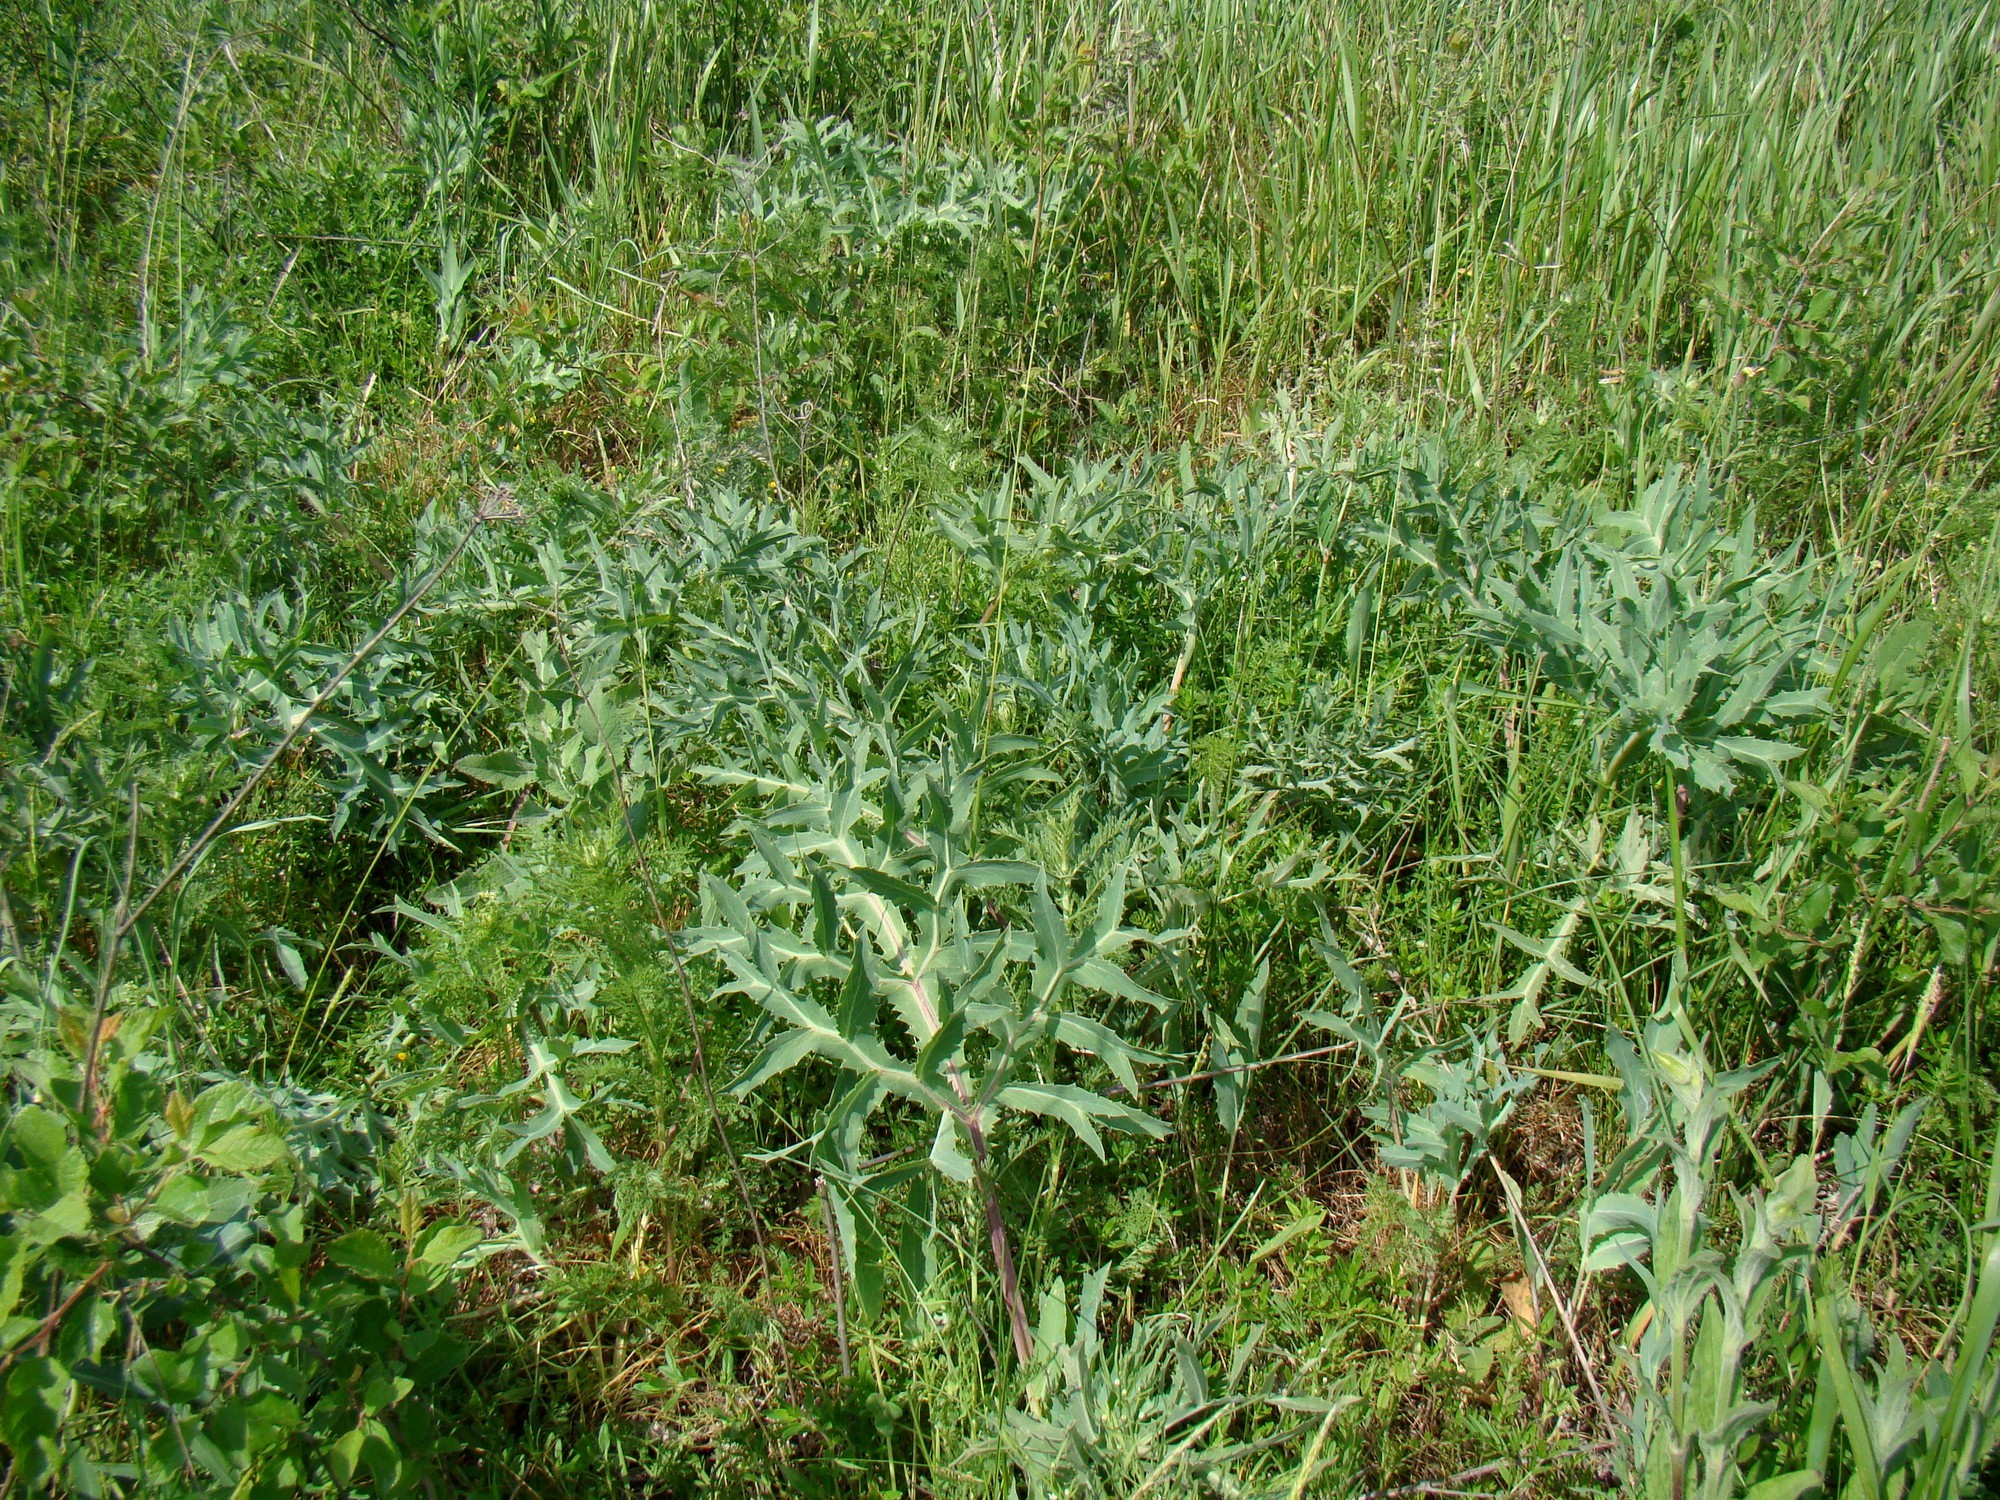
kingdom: Plantae
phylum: Tracheophyta
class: Magnoliopsida
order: Apiales
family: Apiaceae
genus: Eryngium
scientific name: Eryngium campestre
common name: Field eryngo
